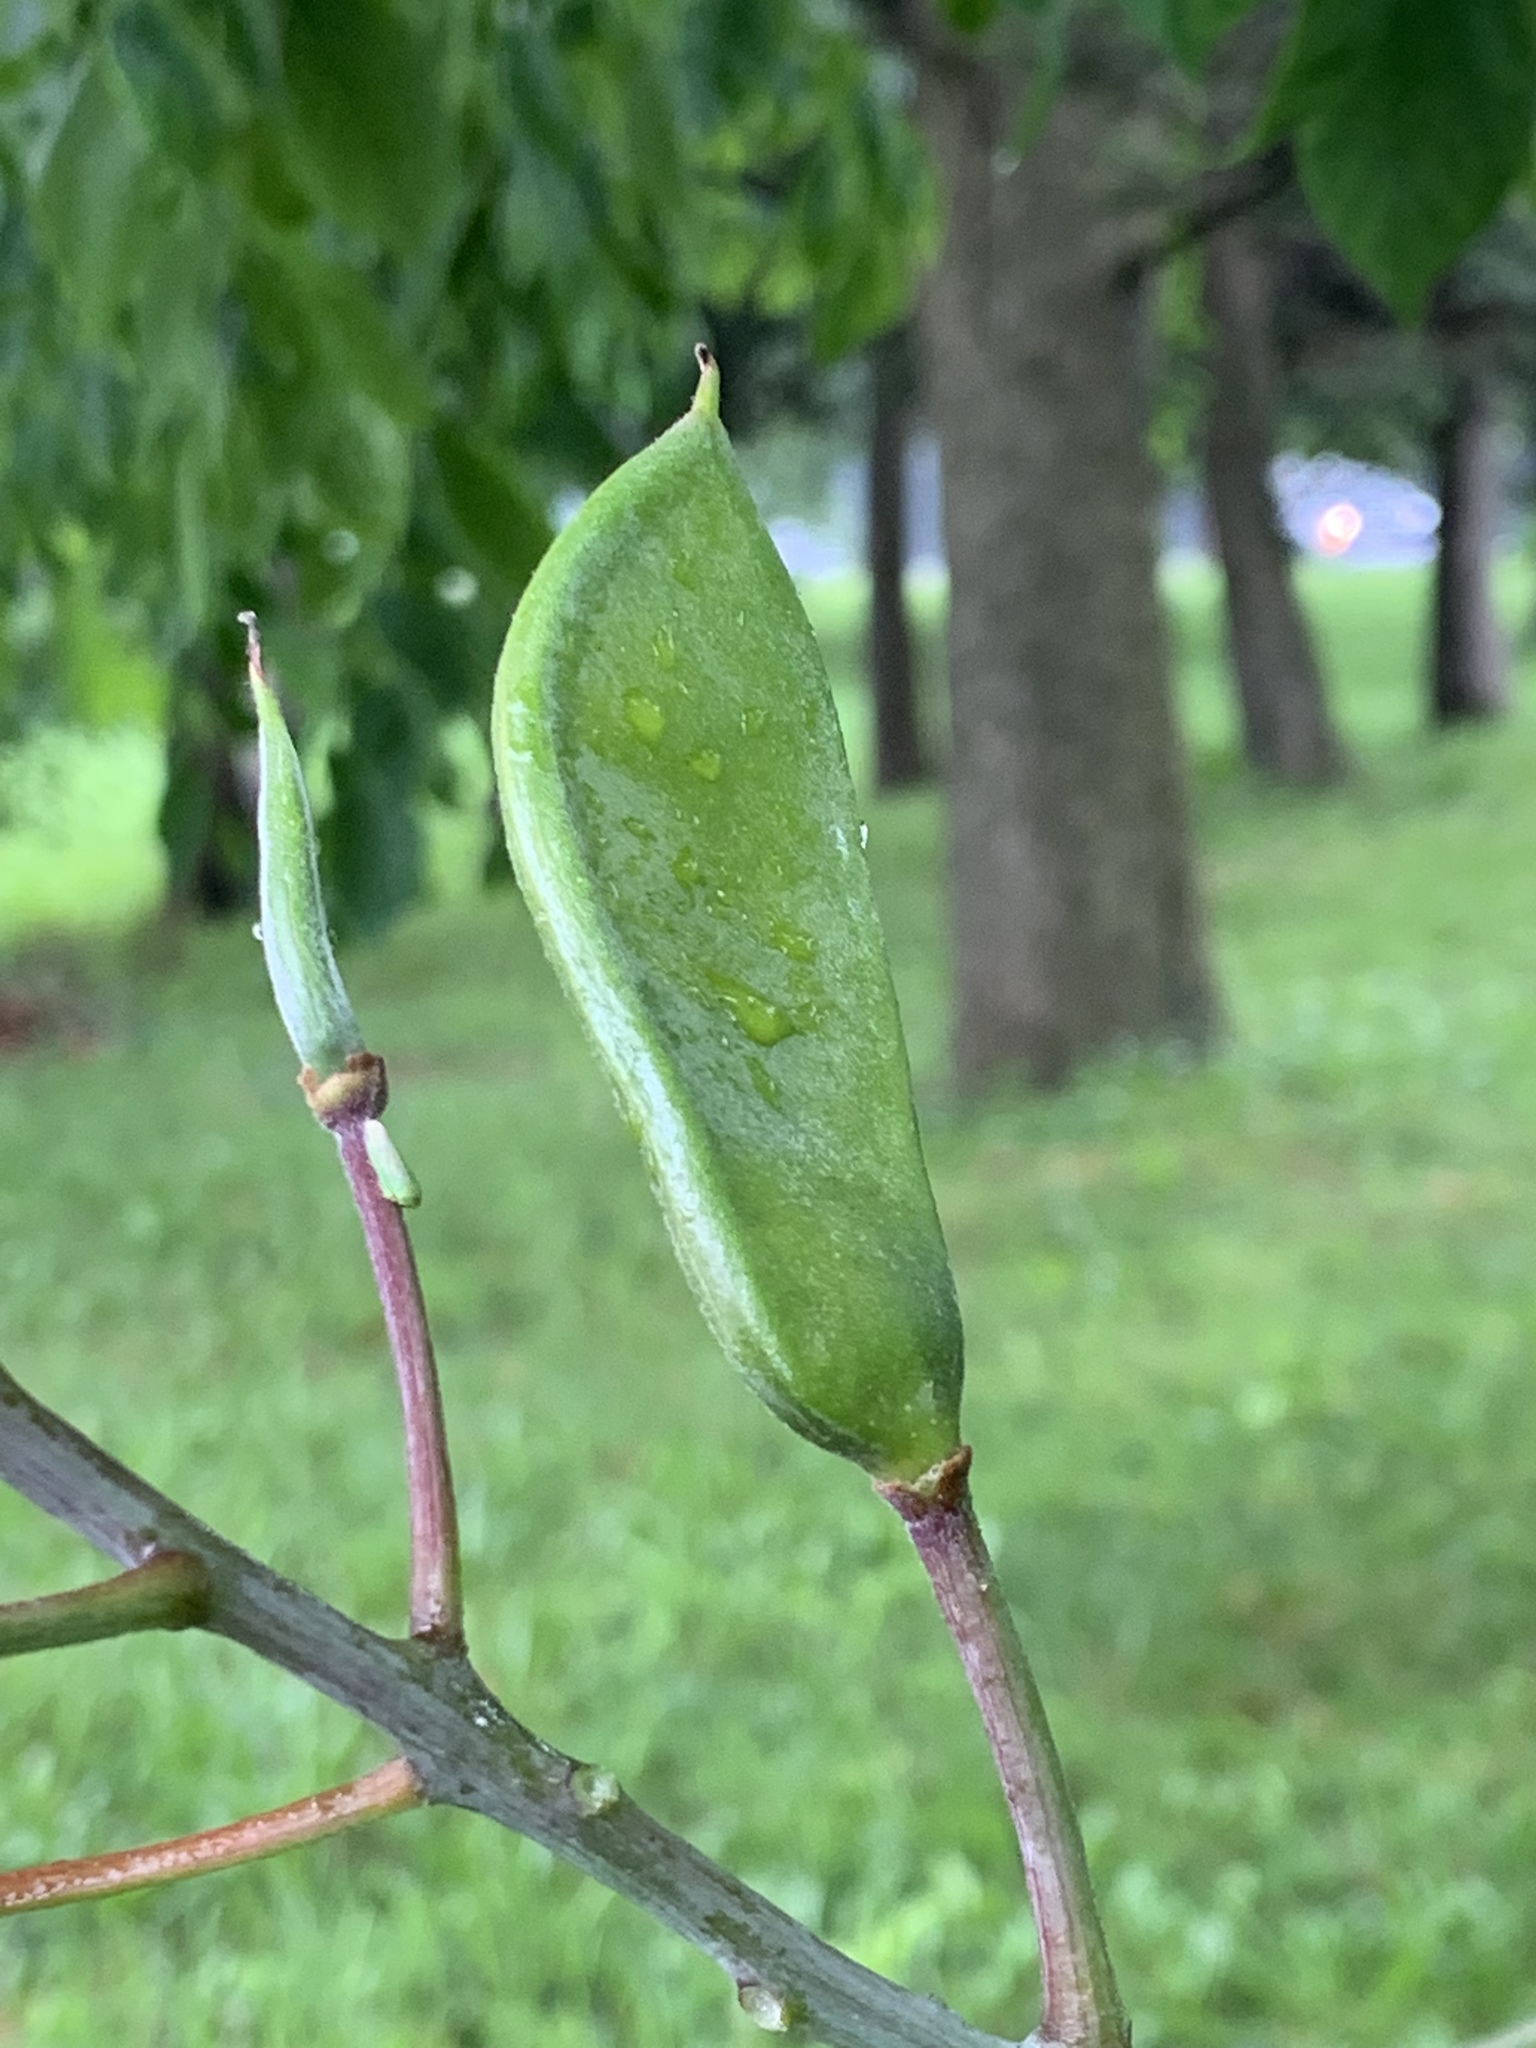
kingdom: Plantae
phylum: Tracheophyta
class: Magnoliopsida
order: Fabales
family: Fabaceae
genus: Gymnocladus
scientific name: Gymnocladus dioicus
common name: Kentucky coffee-tree
